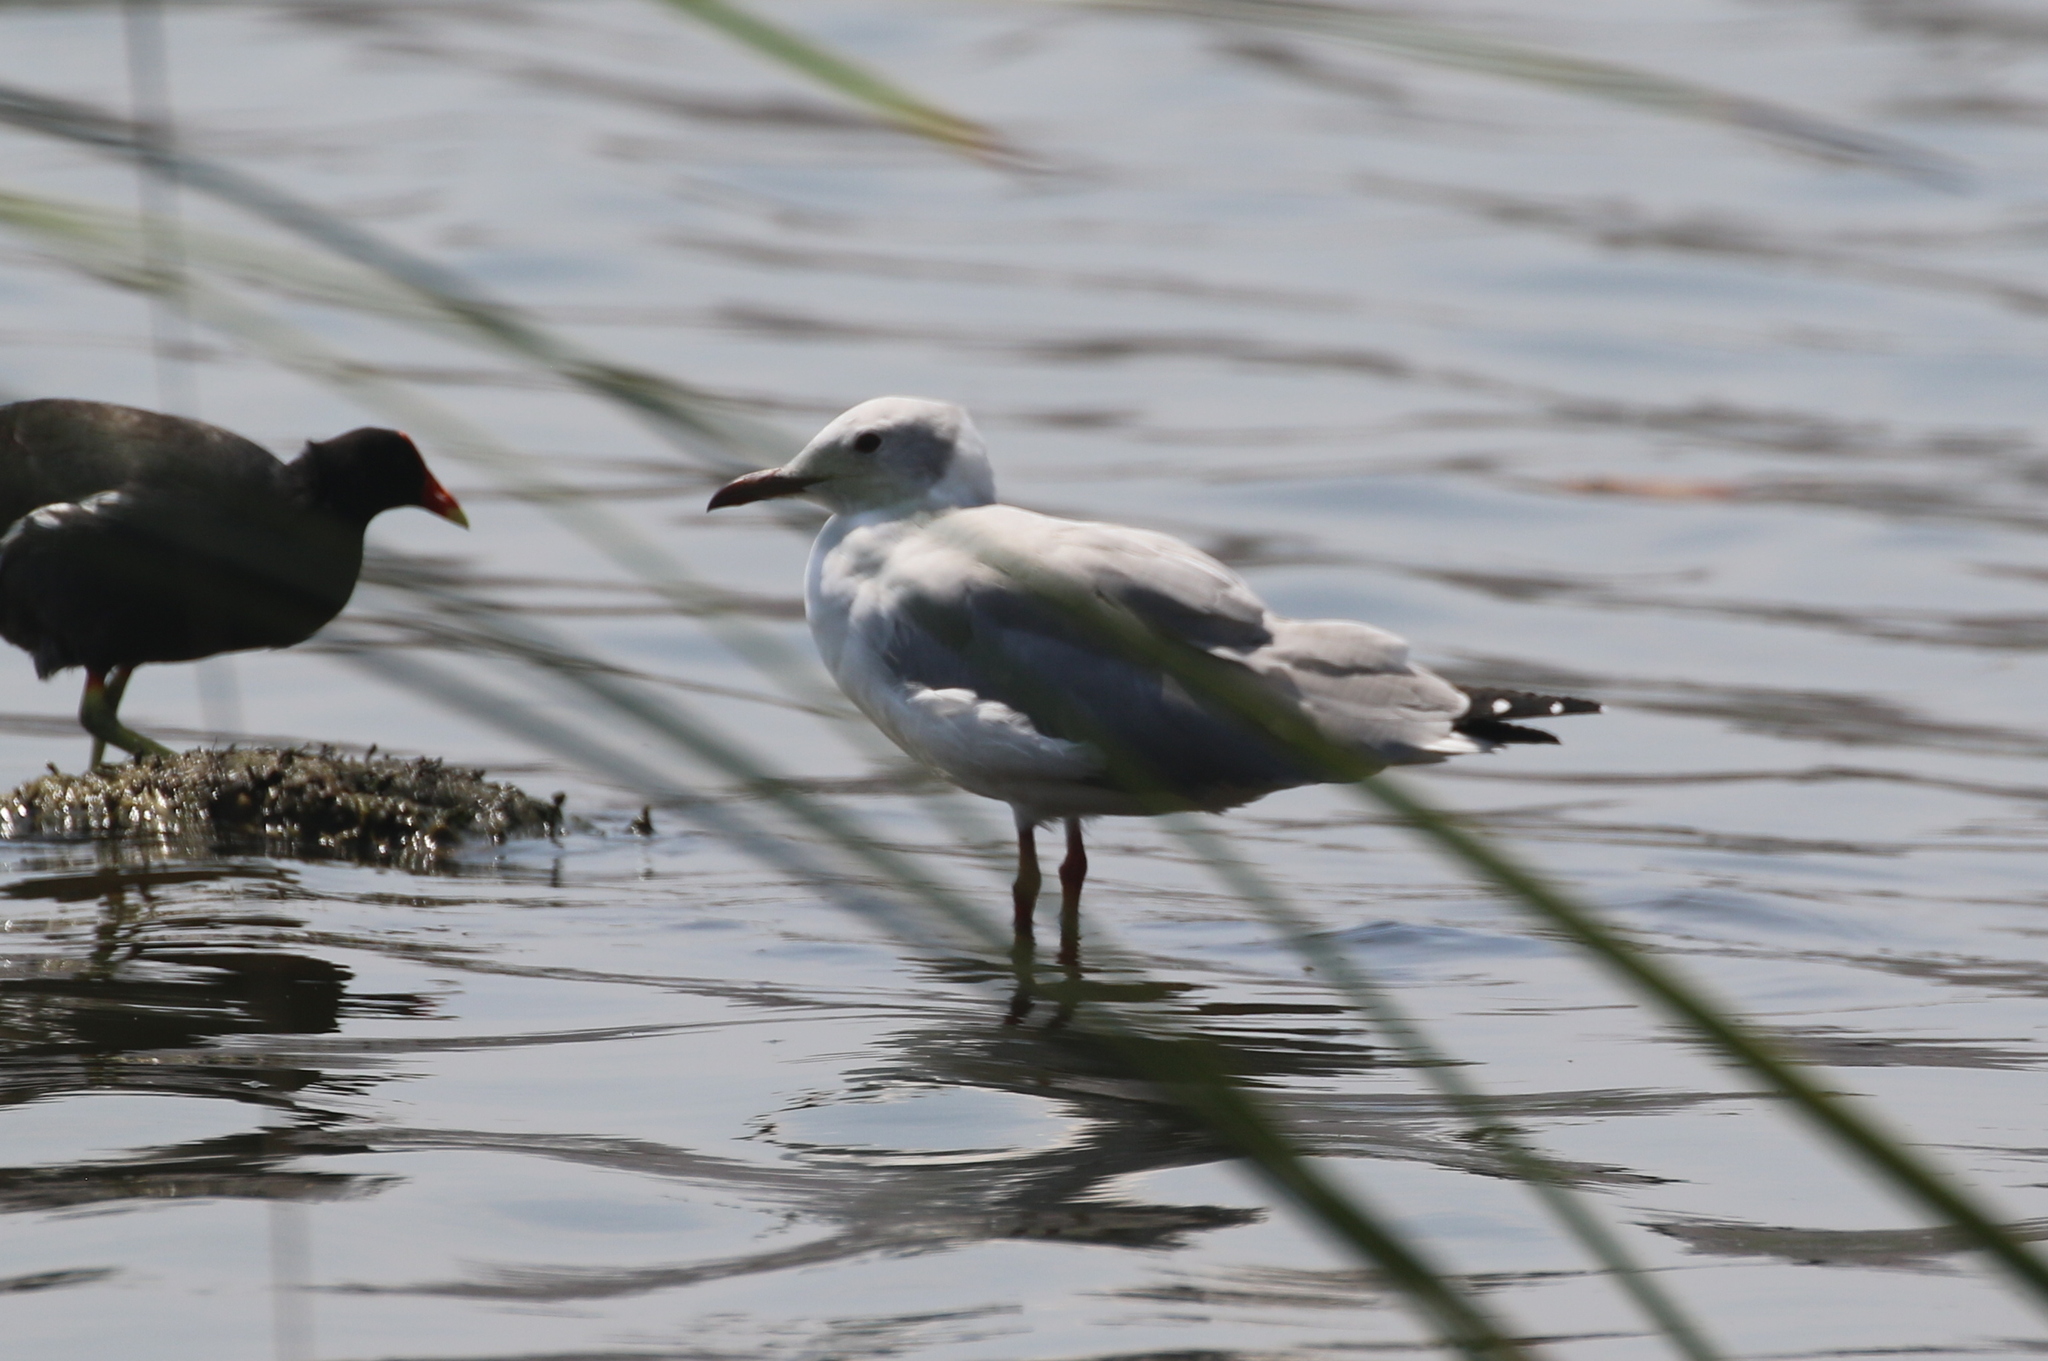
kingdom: Animalia
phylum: Chordata
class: Aves
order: Charadriiformes
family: Laridae
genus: Chroicocephalus
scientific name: Chroicocephalus cirrocephalus
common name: Grey-headed gull
